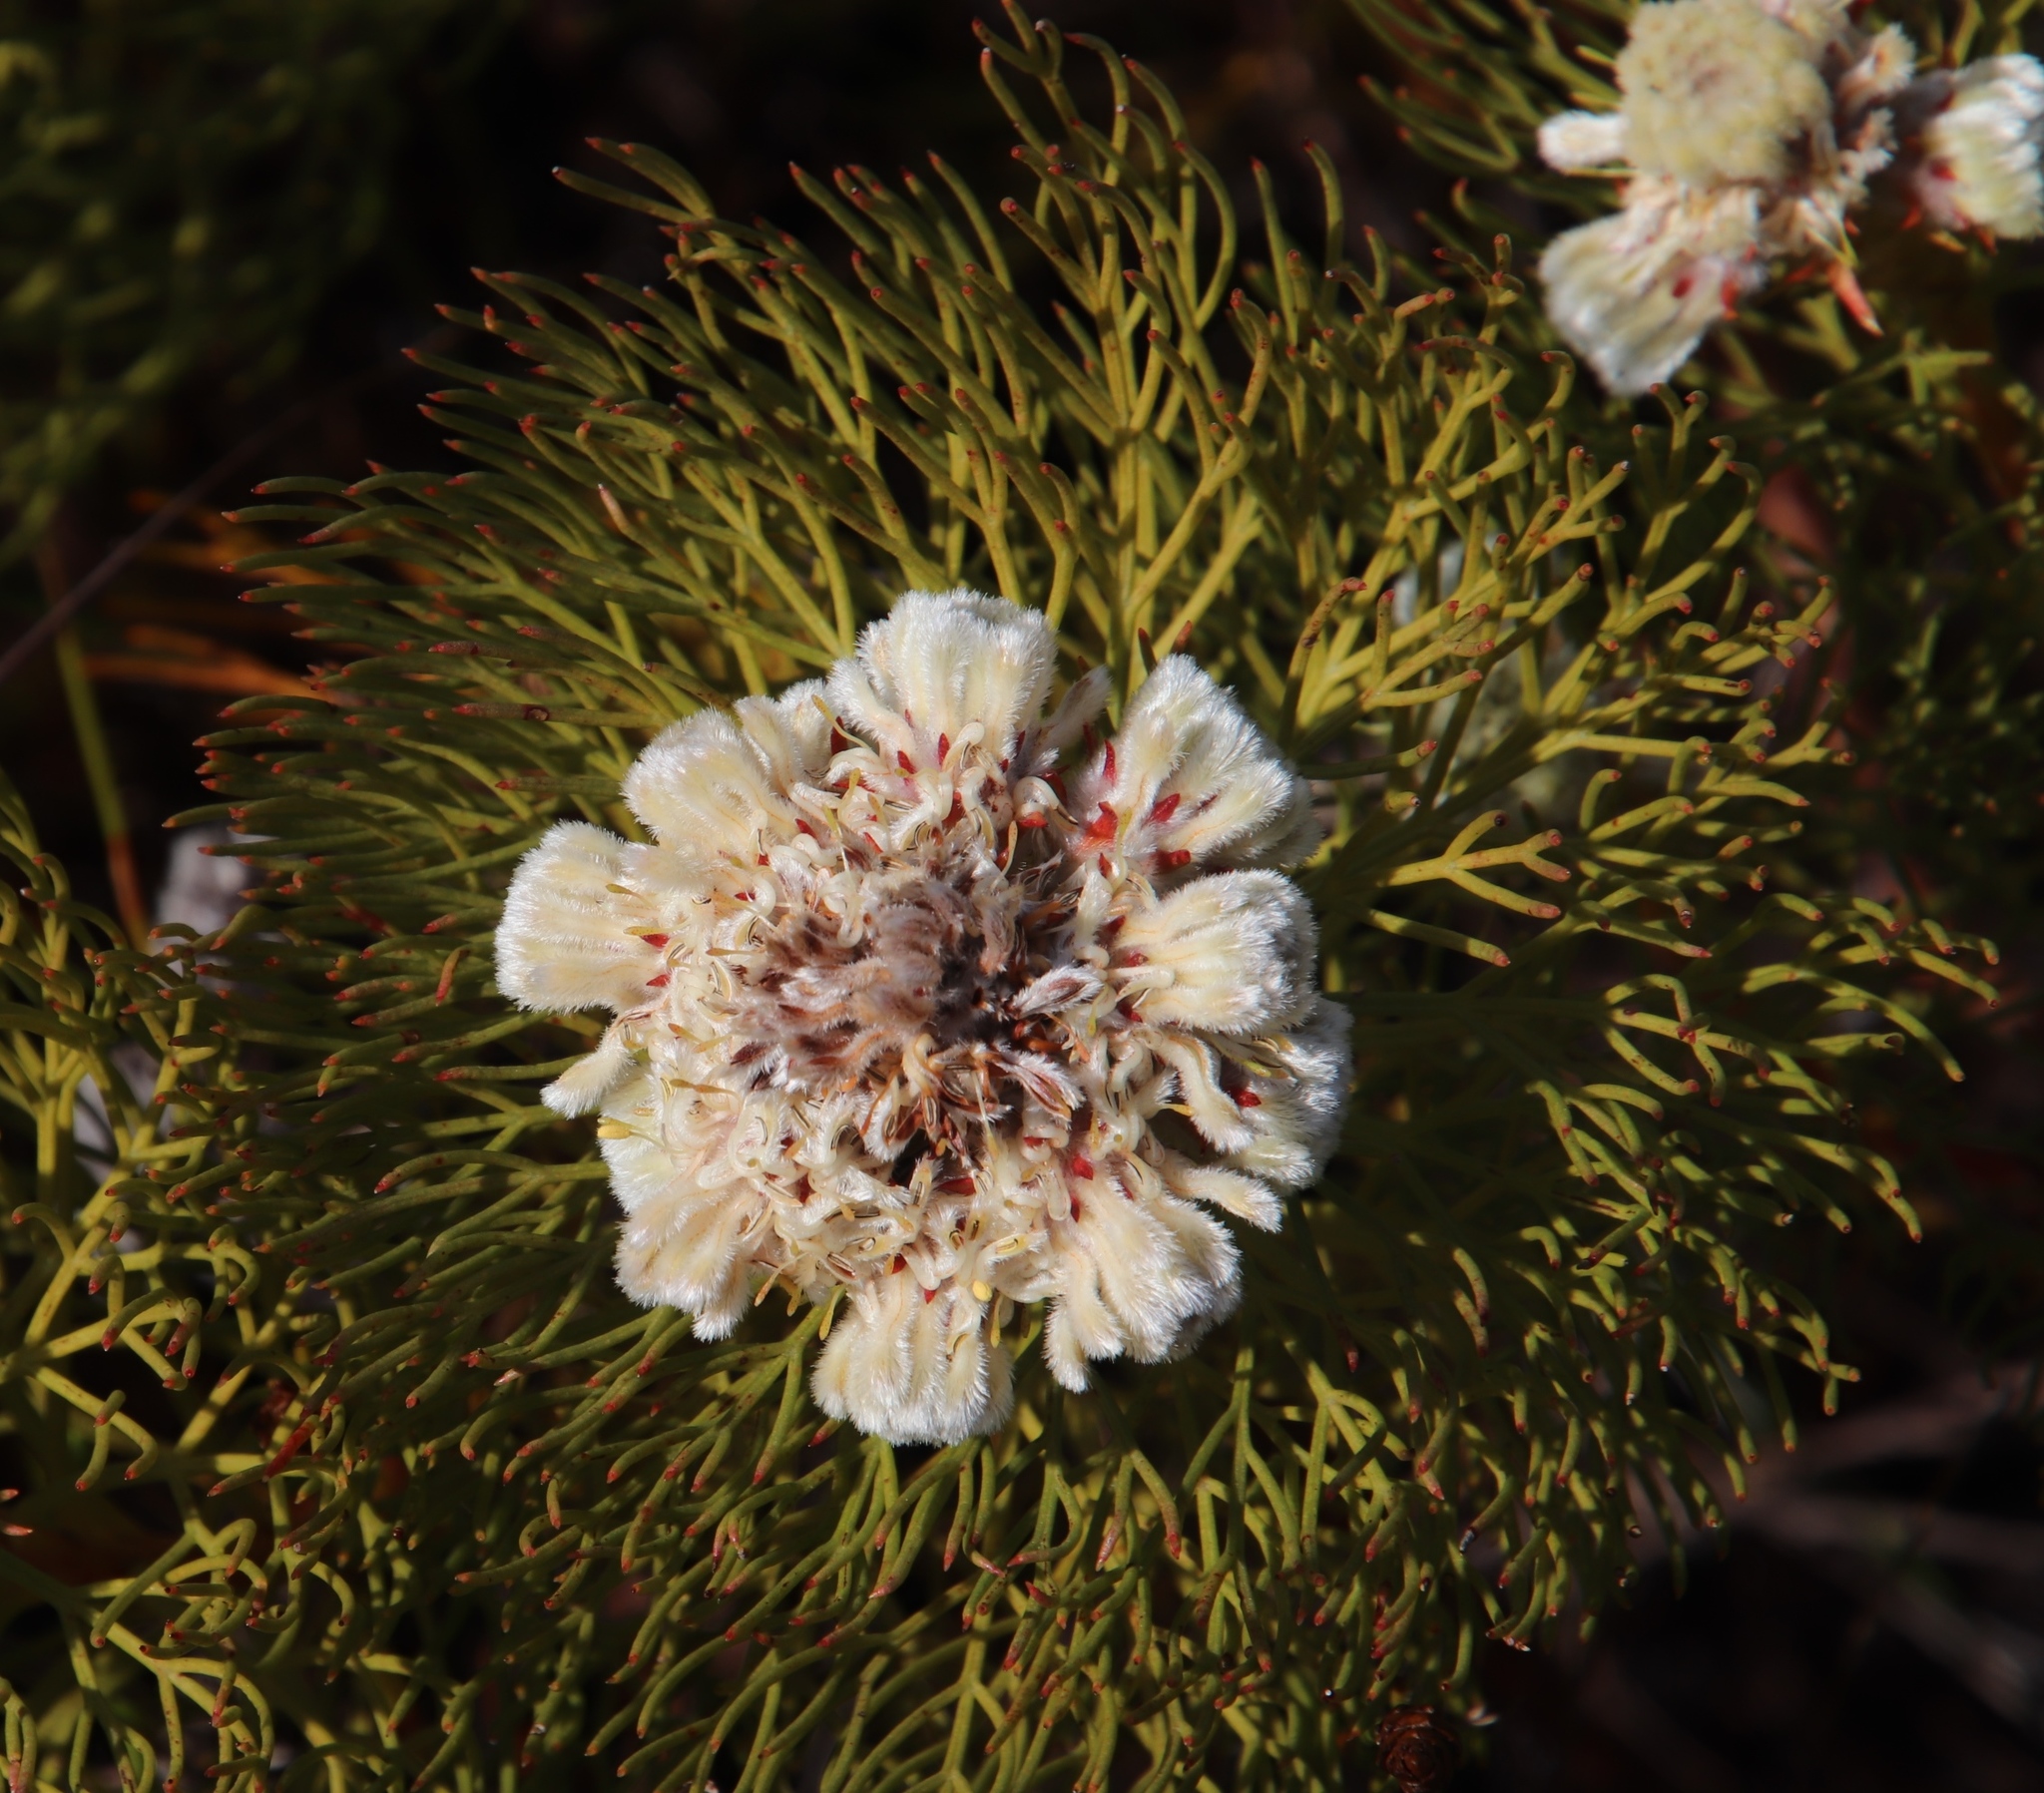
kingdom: Plantae
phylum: Tracheophyta
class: Magnoliopsida
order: Proteales
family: Proteaceae
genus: Serruria
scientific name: Serruria glomerata
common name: Cluster spiderhead
